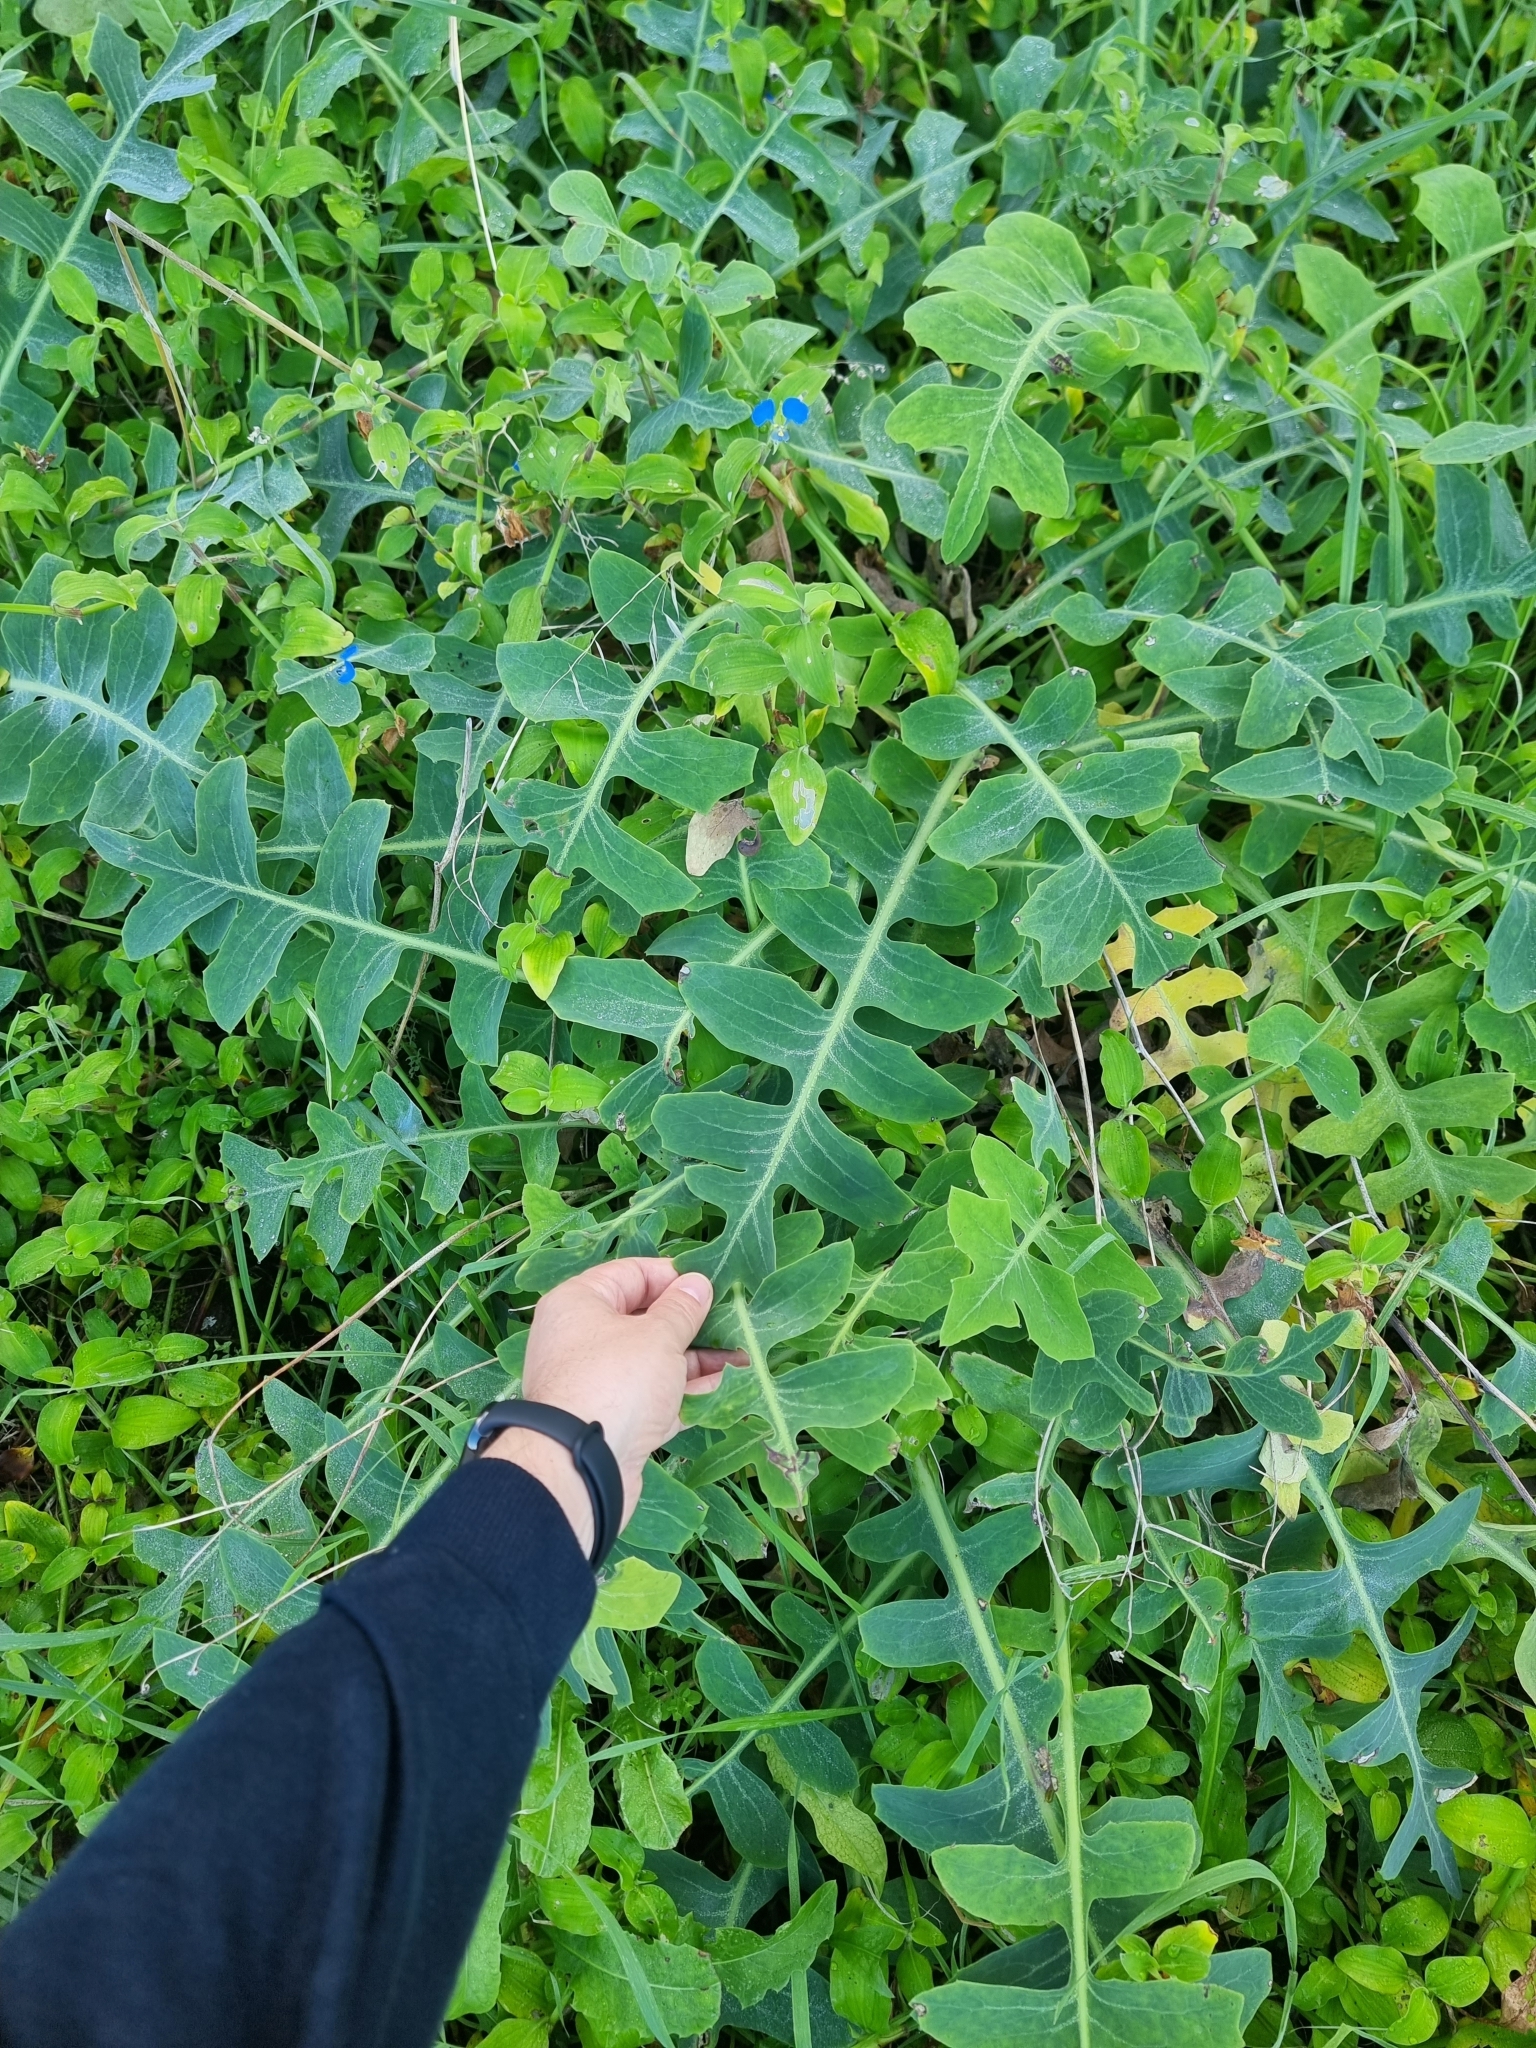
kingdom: Plantae
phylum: Tracheophyta
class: Magnoliopsida
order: Asterales
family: Asteraceae
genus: Sonchus
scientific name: Sonchus latifolius
